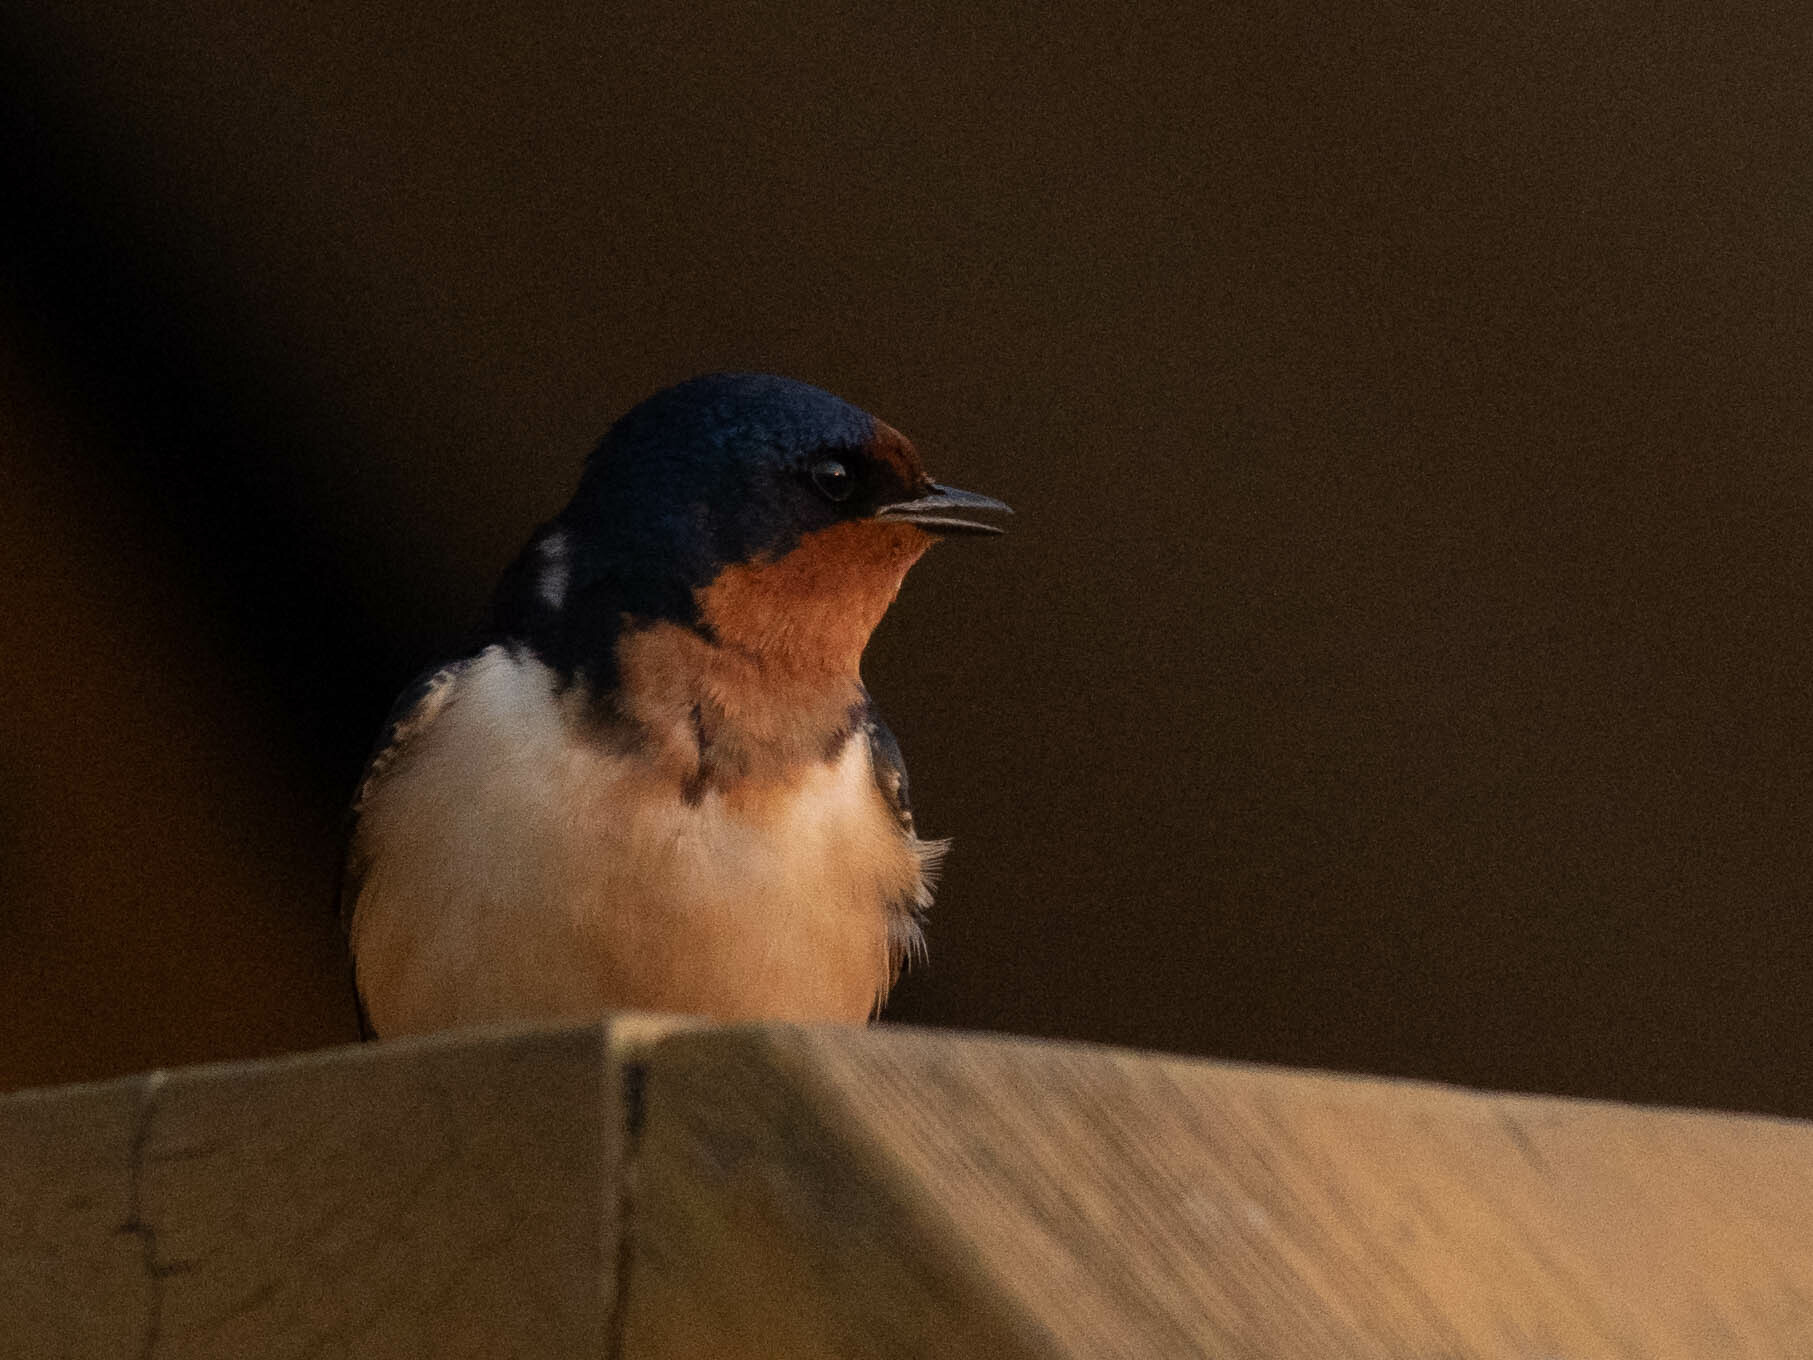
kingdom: Animalia
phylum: Chordata
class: Aves
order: Passeriformes
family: Hirundinidae
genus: Hirundo
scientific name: Hirundo rustica
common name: Barn swallow
